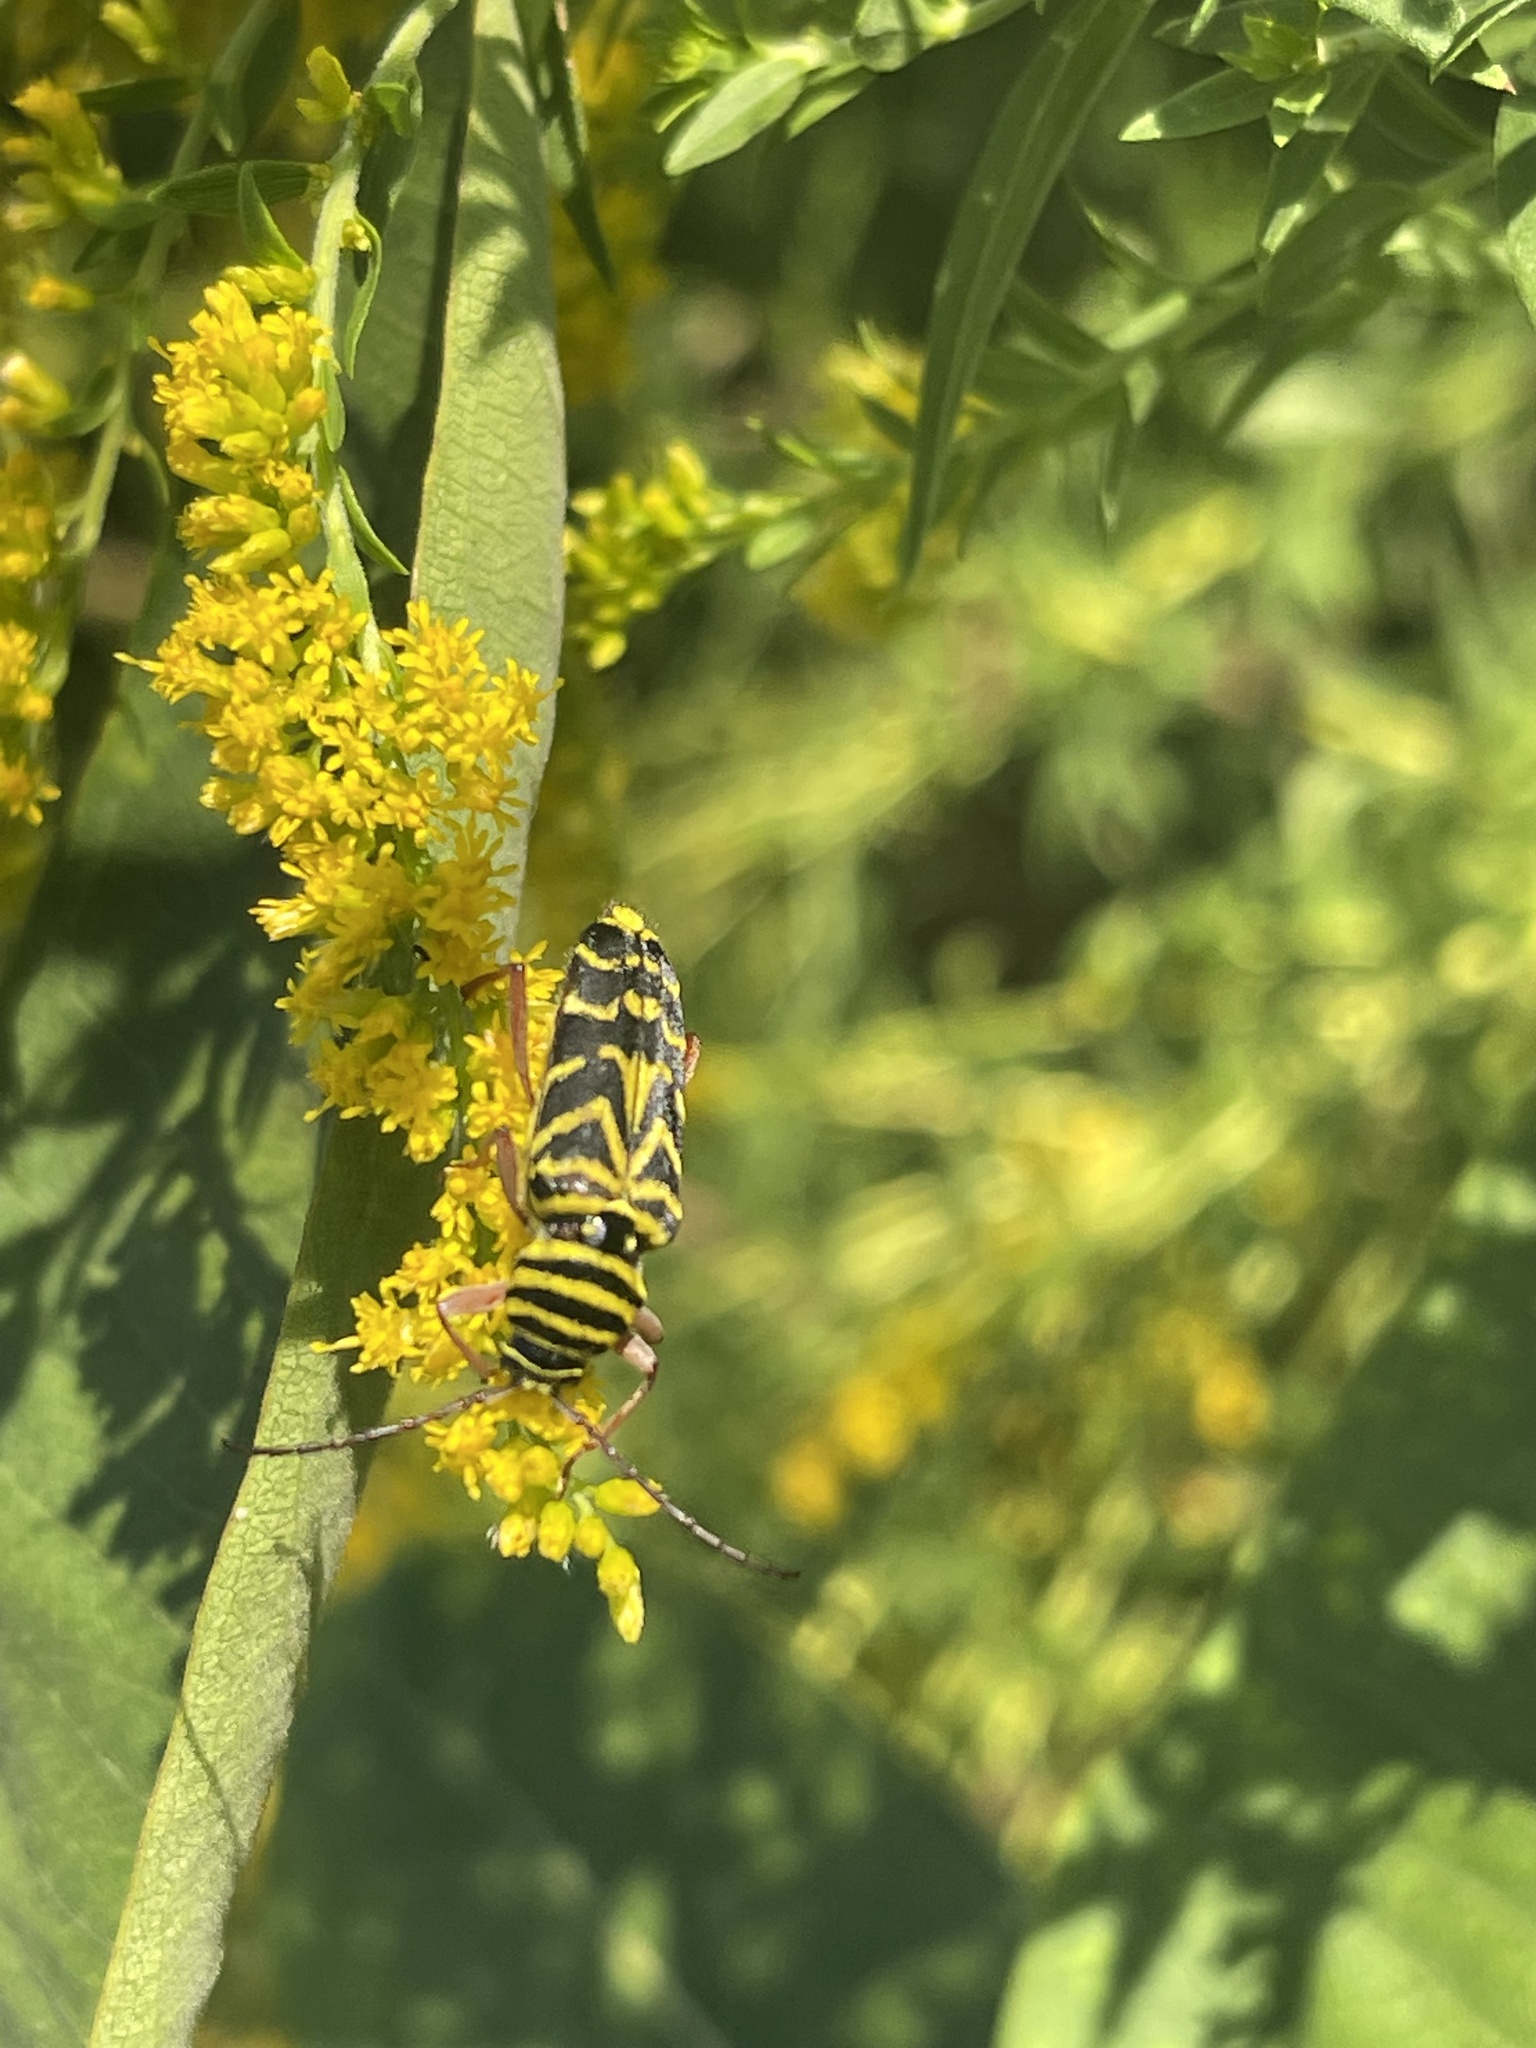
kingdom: Animalia
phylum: Arthropoda
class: Insecta
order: Coleoptera
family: Cerambycidae
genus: Megacyllene
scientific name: Megacyllene robiniae
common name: Locust borer
